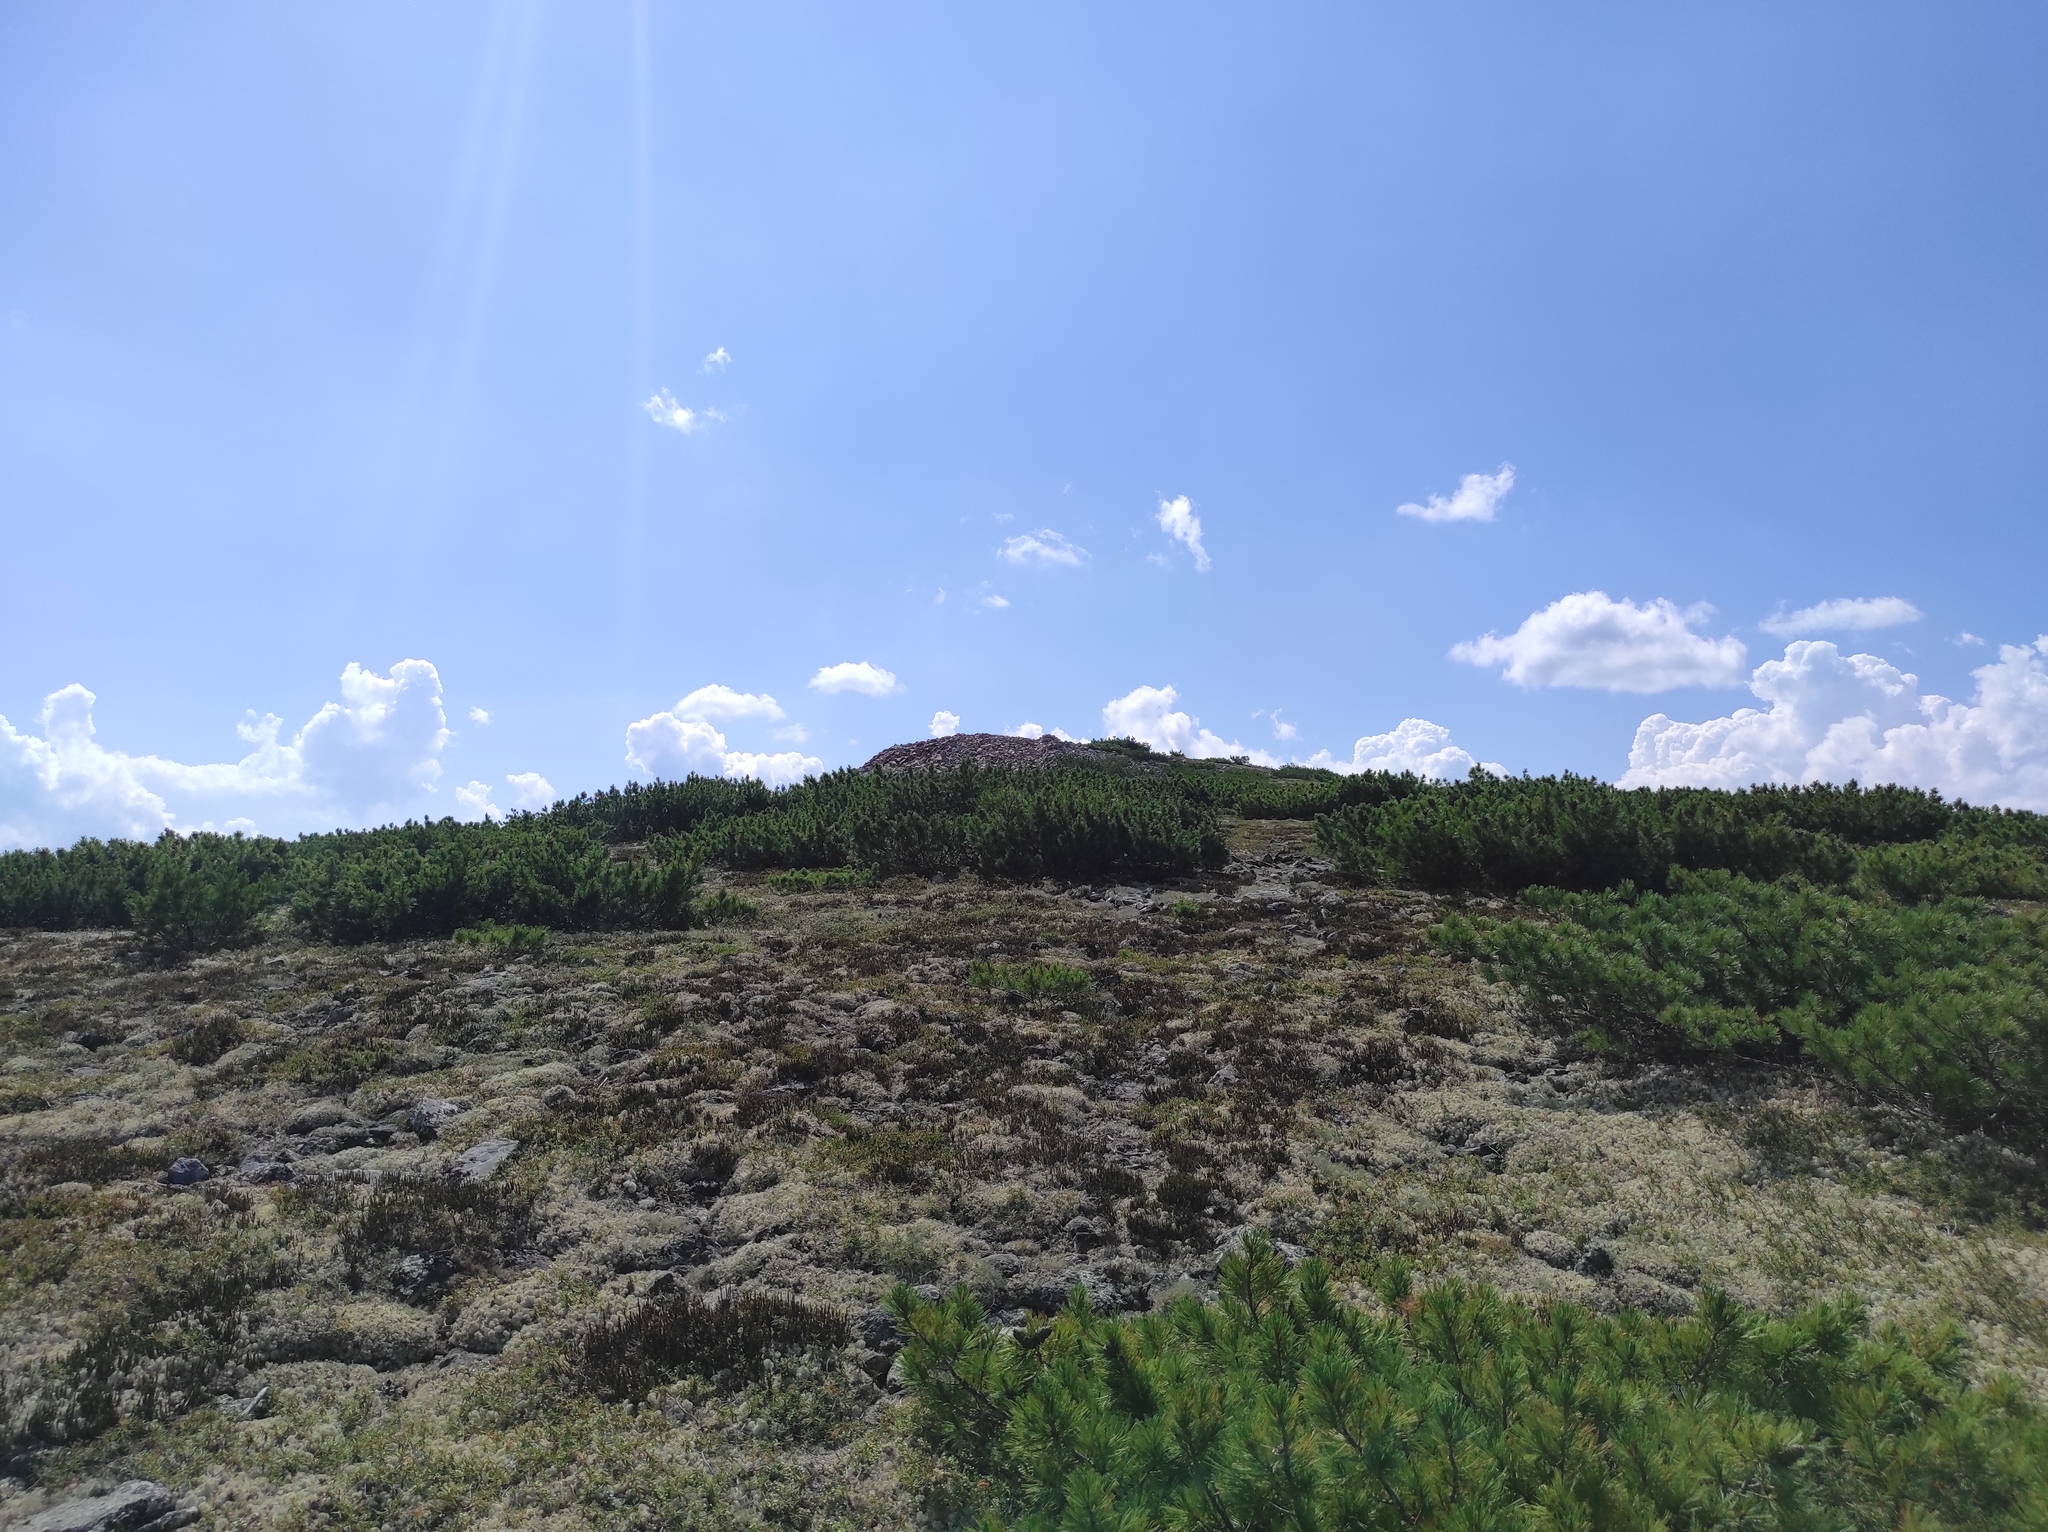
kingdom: Plantae
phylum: Tracheophyta
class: Pinopsida
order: Pinales
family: Pinaceae
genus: Pinus
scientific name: Pinus pumila
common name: Dwarf siberian pine
